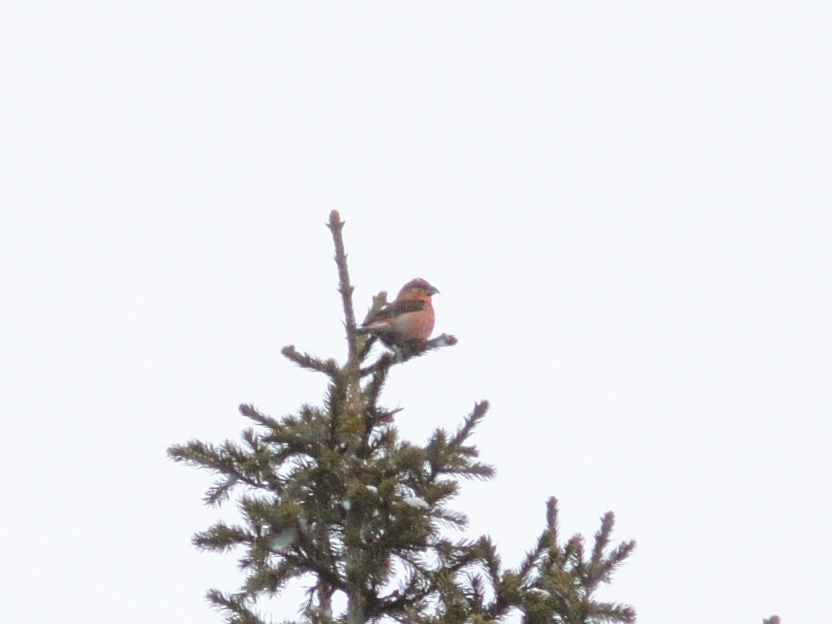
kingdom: Animalia
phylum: Chordata
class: Aves
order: Passeriformes
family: Fringillidae
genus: Loxia
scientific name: Loxia curvirostra
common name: Red crossbill
